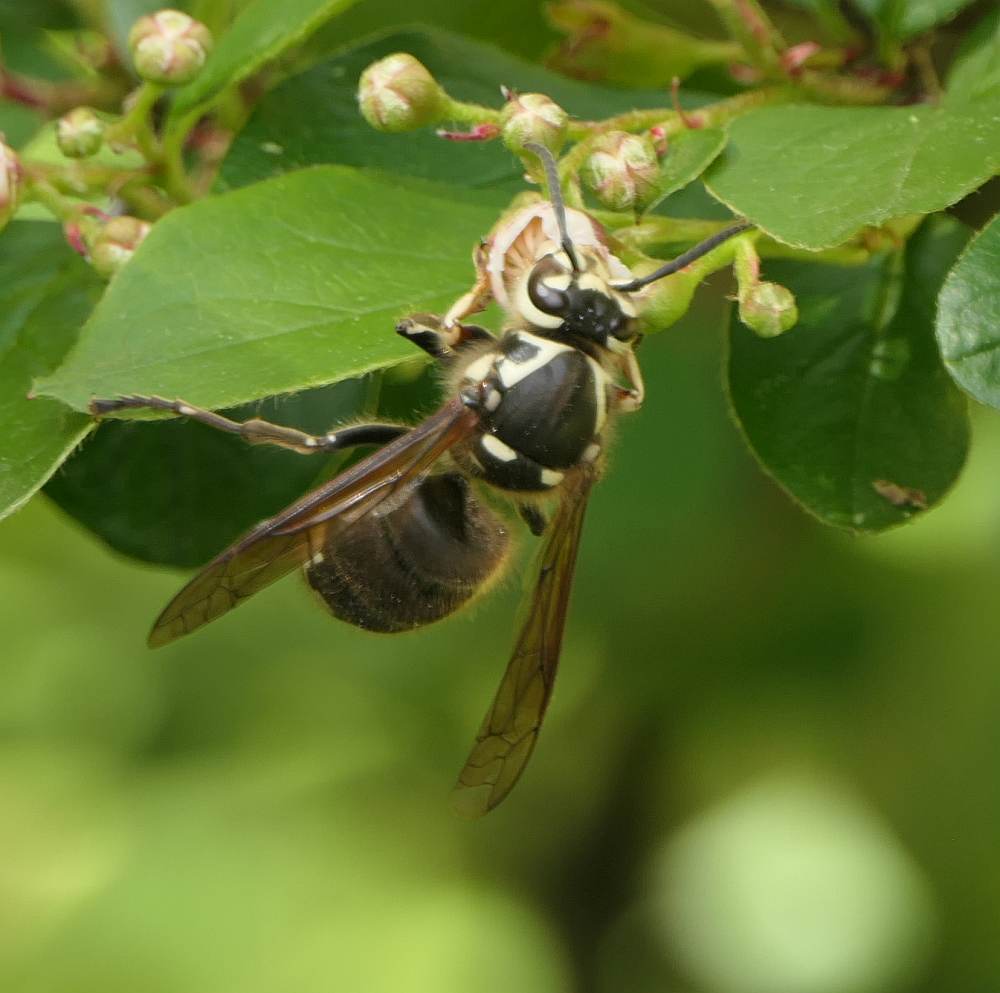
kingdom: Animalia
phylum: Arthropoda
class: Insecta
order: Hymenoptera
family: Vespidae
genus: Dolichovespula
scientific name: Dolichovespula maculata
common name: Bald-faced hornet
